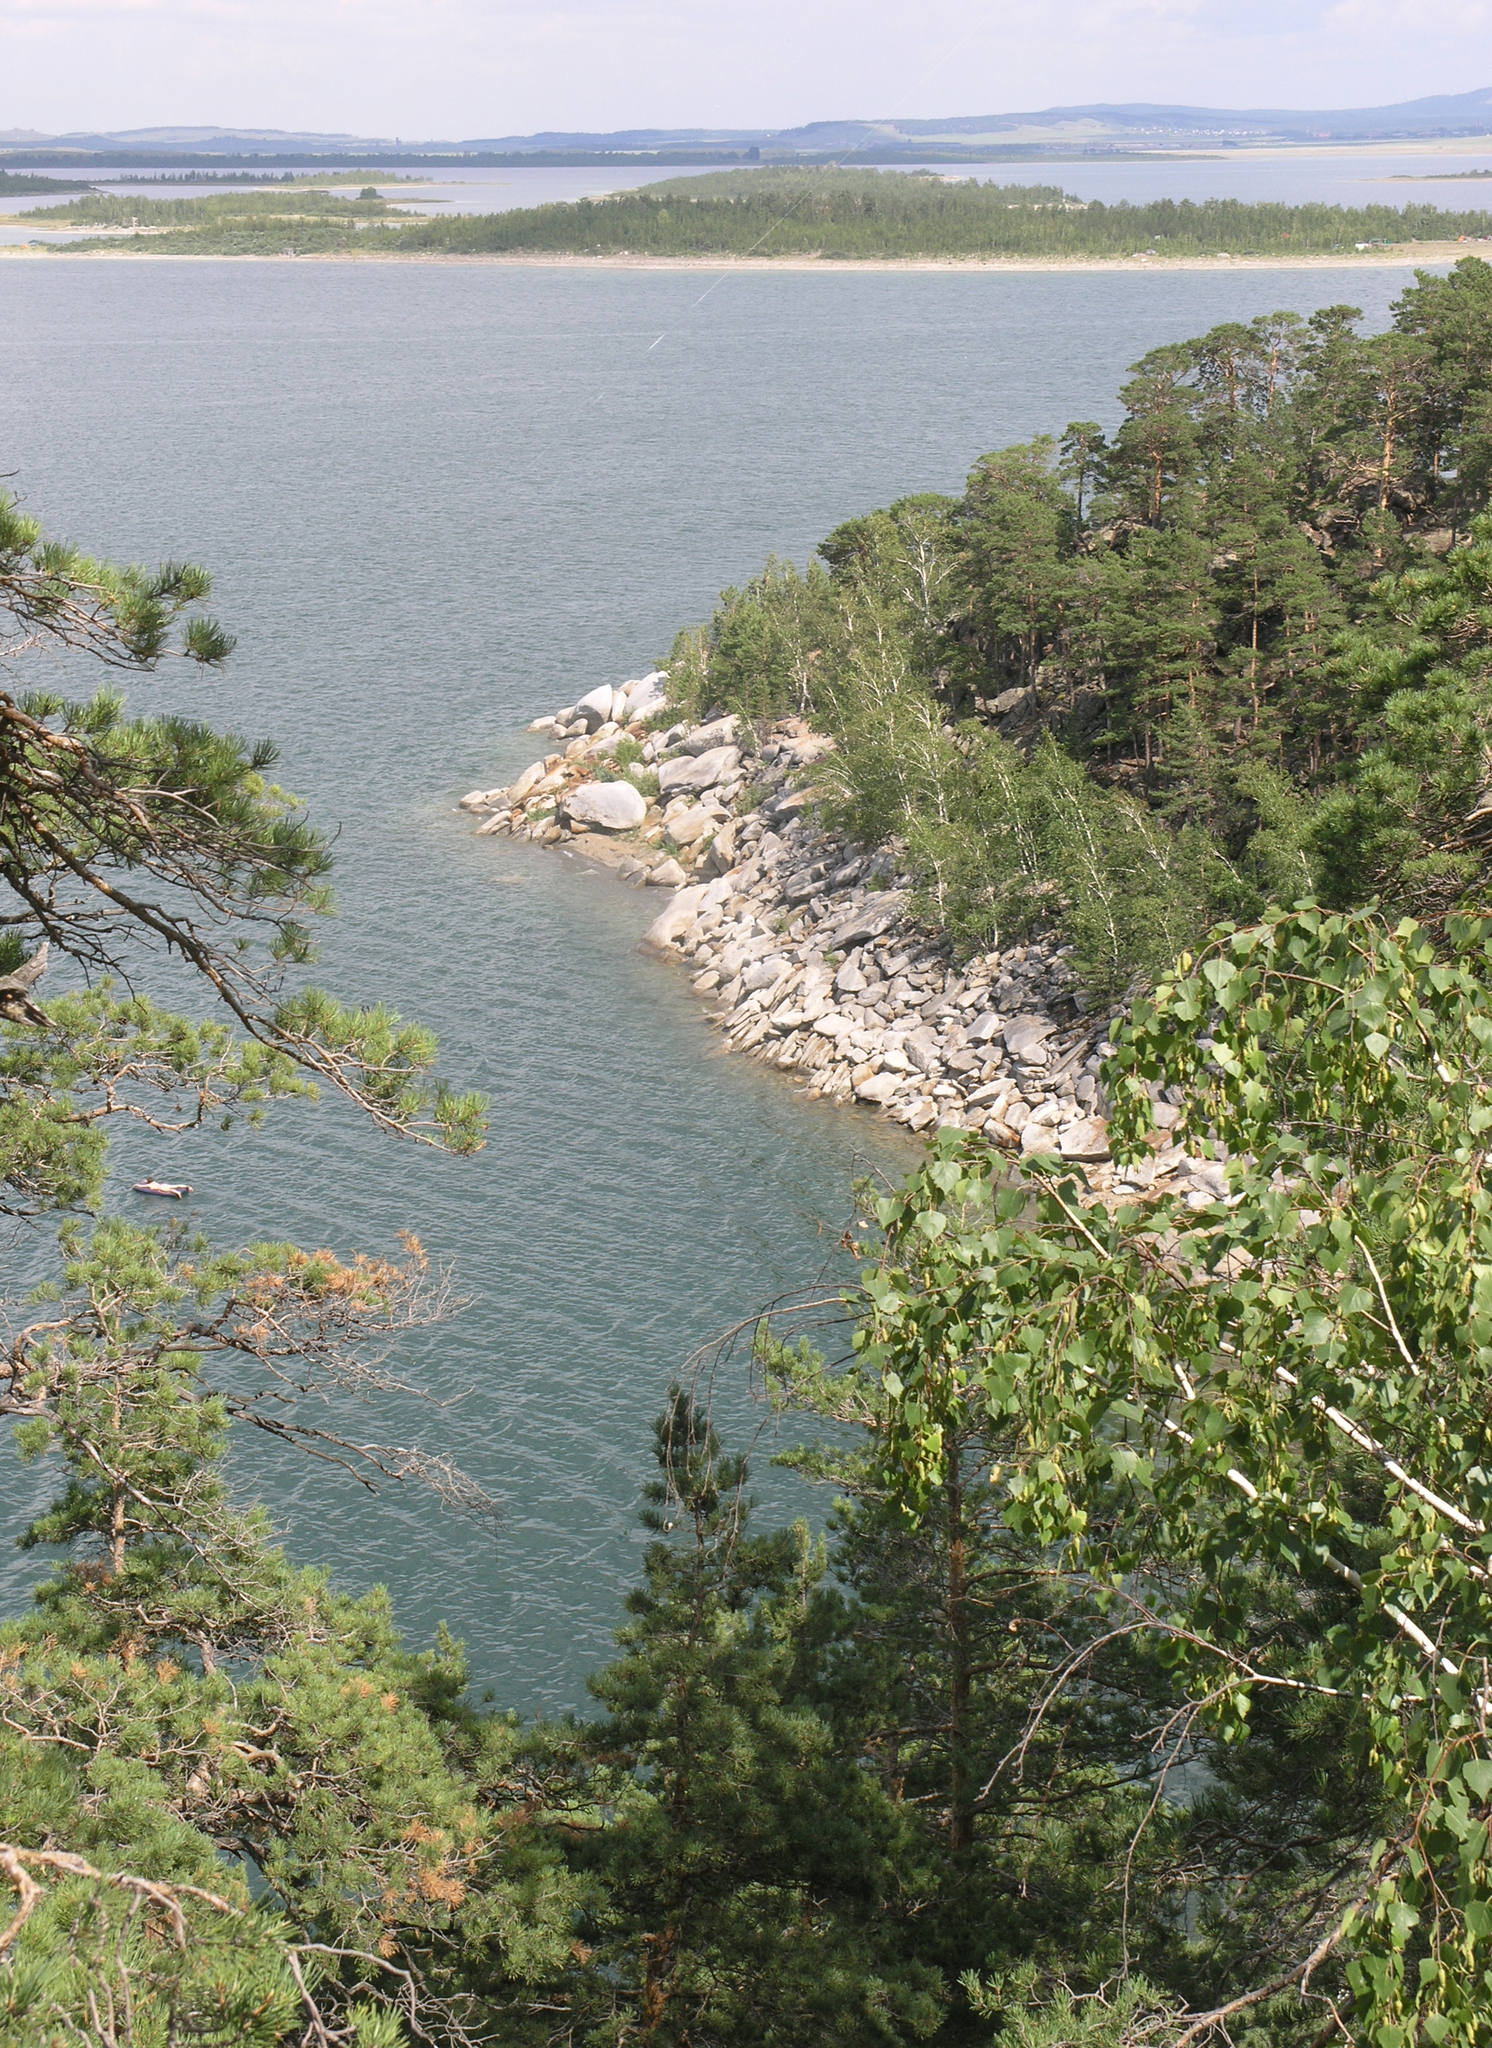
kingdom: Plantae
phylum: Tracheophyta
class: Pinopsida
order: Pinales
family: Pinaceae
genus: Pinus
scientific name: Pinus sylvestris
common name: Scots pine
